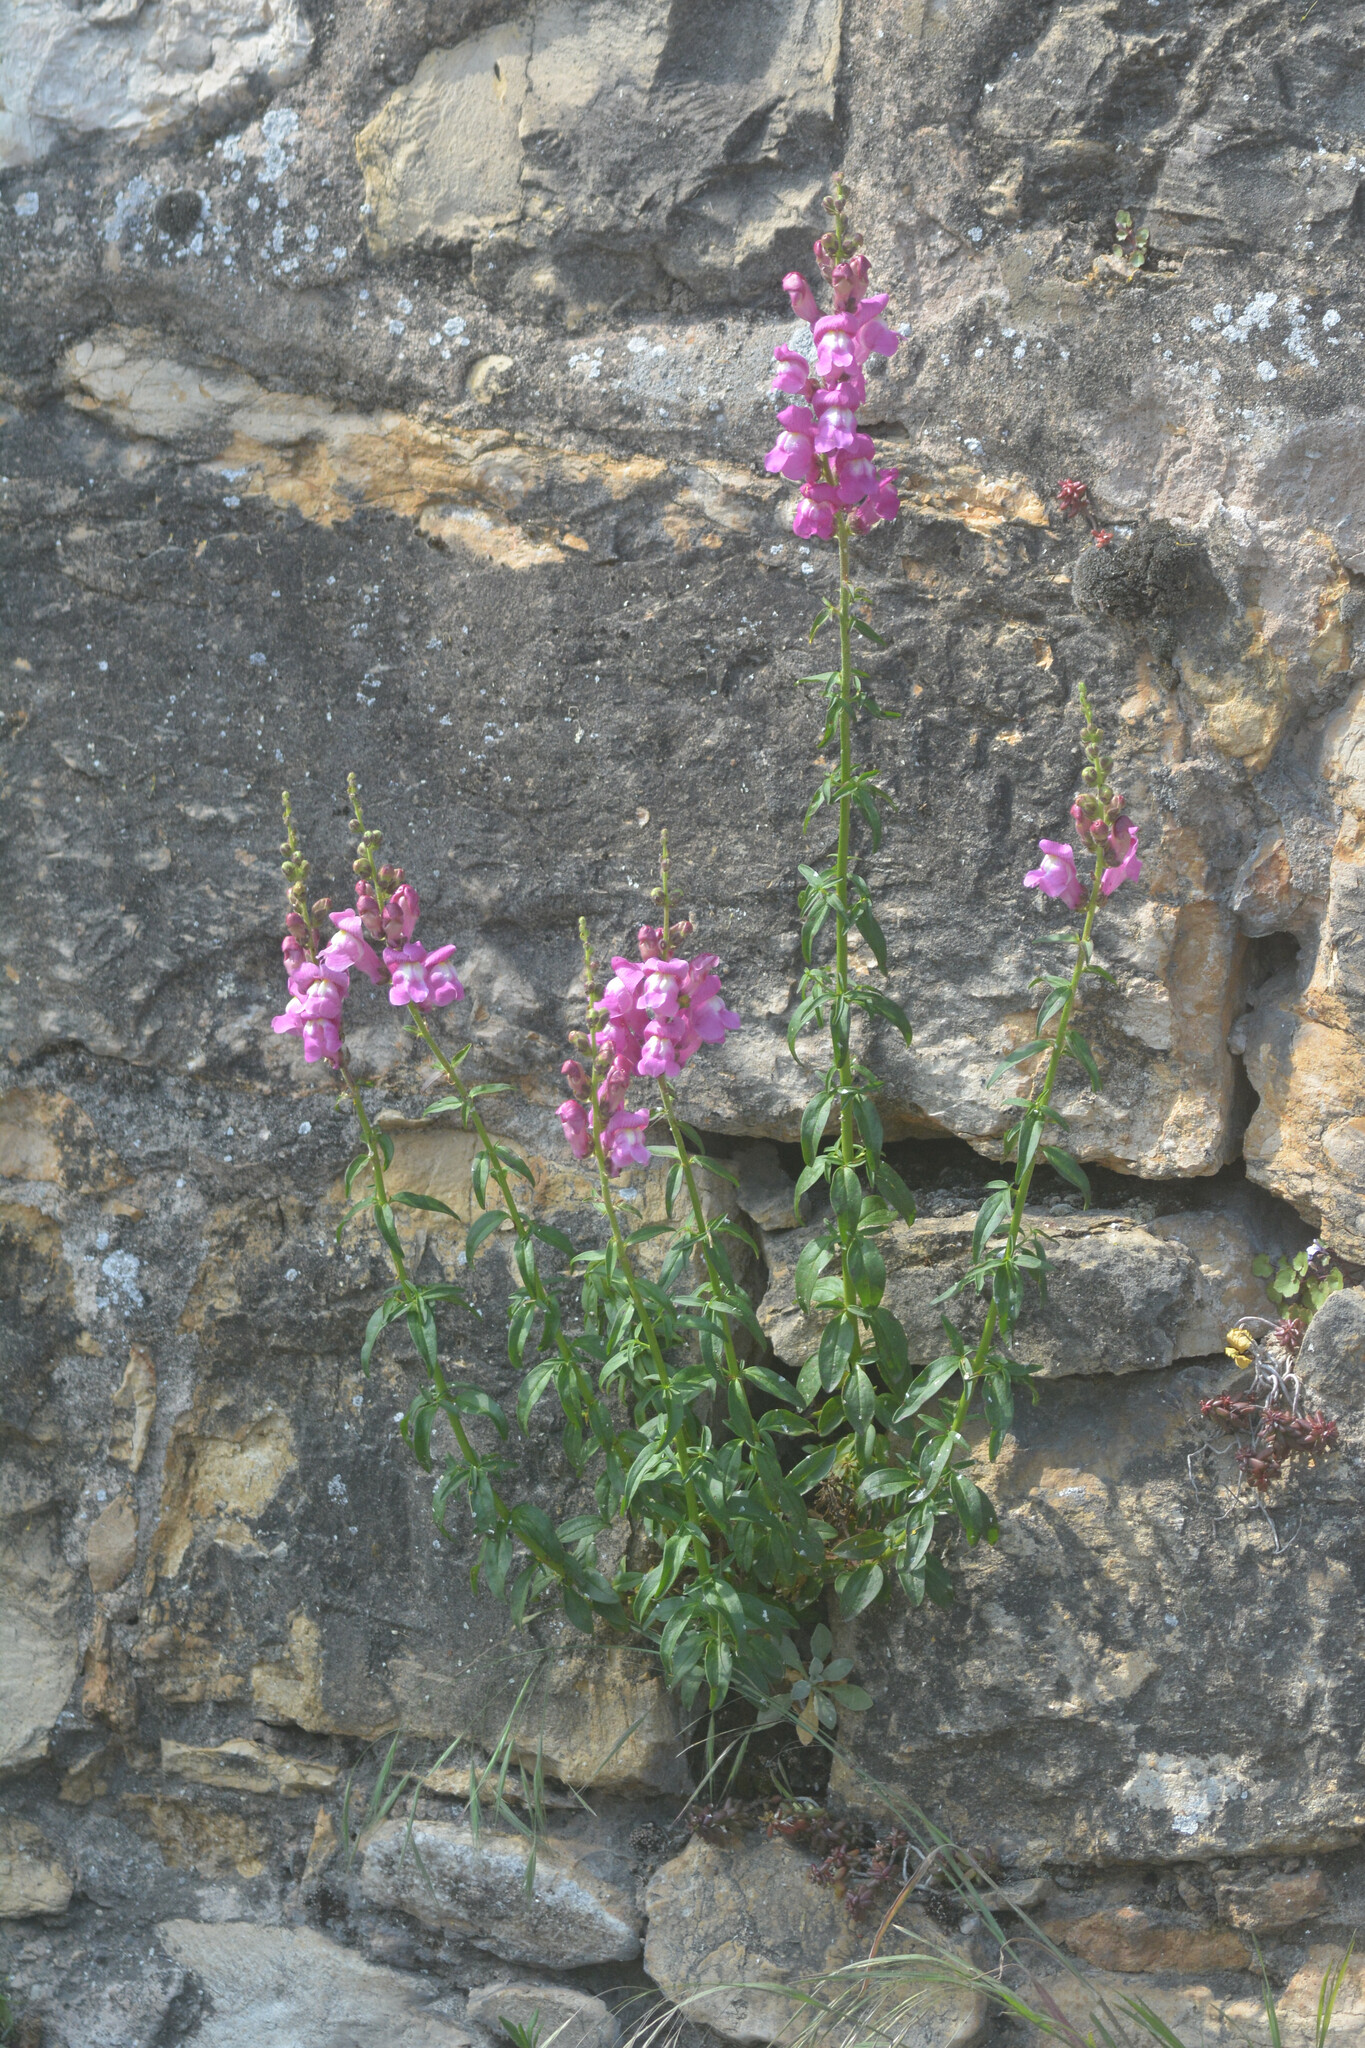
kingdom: Plantae
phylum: Tracheophyta
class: Magnoliopsida
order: Lamiales
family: Plantaginaceae
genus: Antirrhinum
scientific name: Antirrhinum majus
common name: Snapdragon
